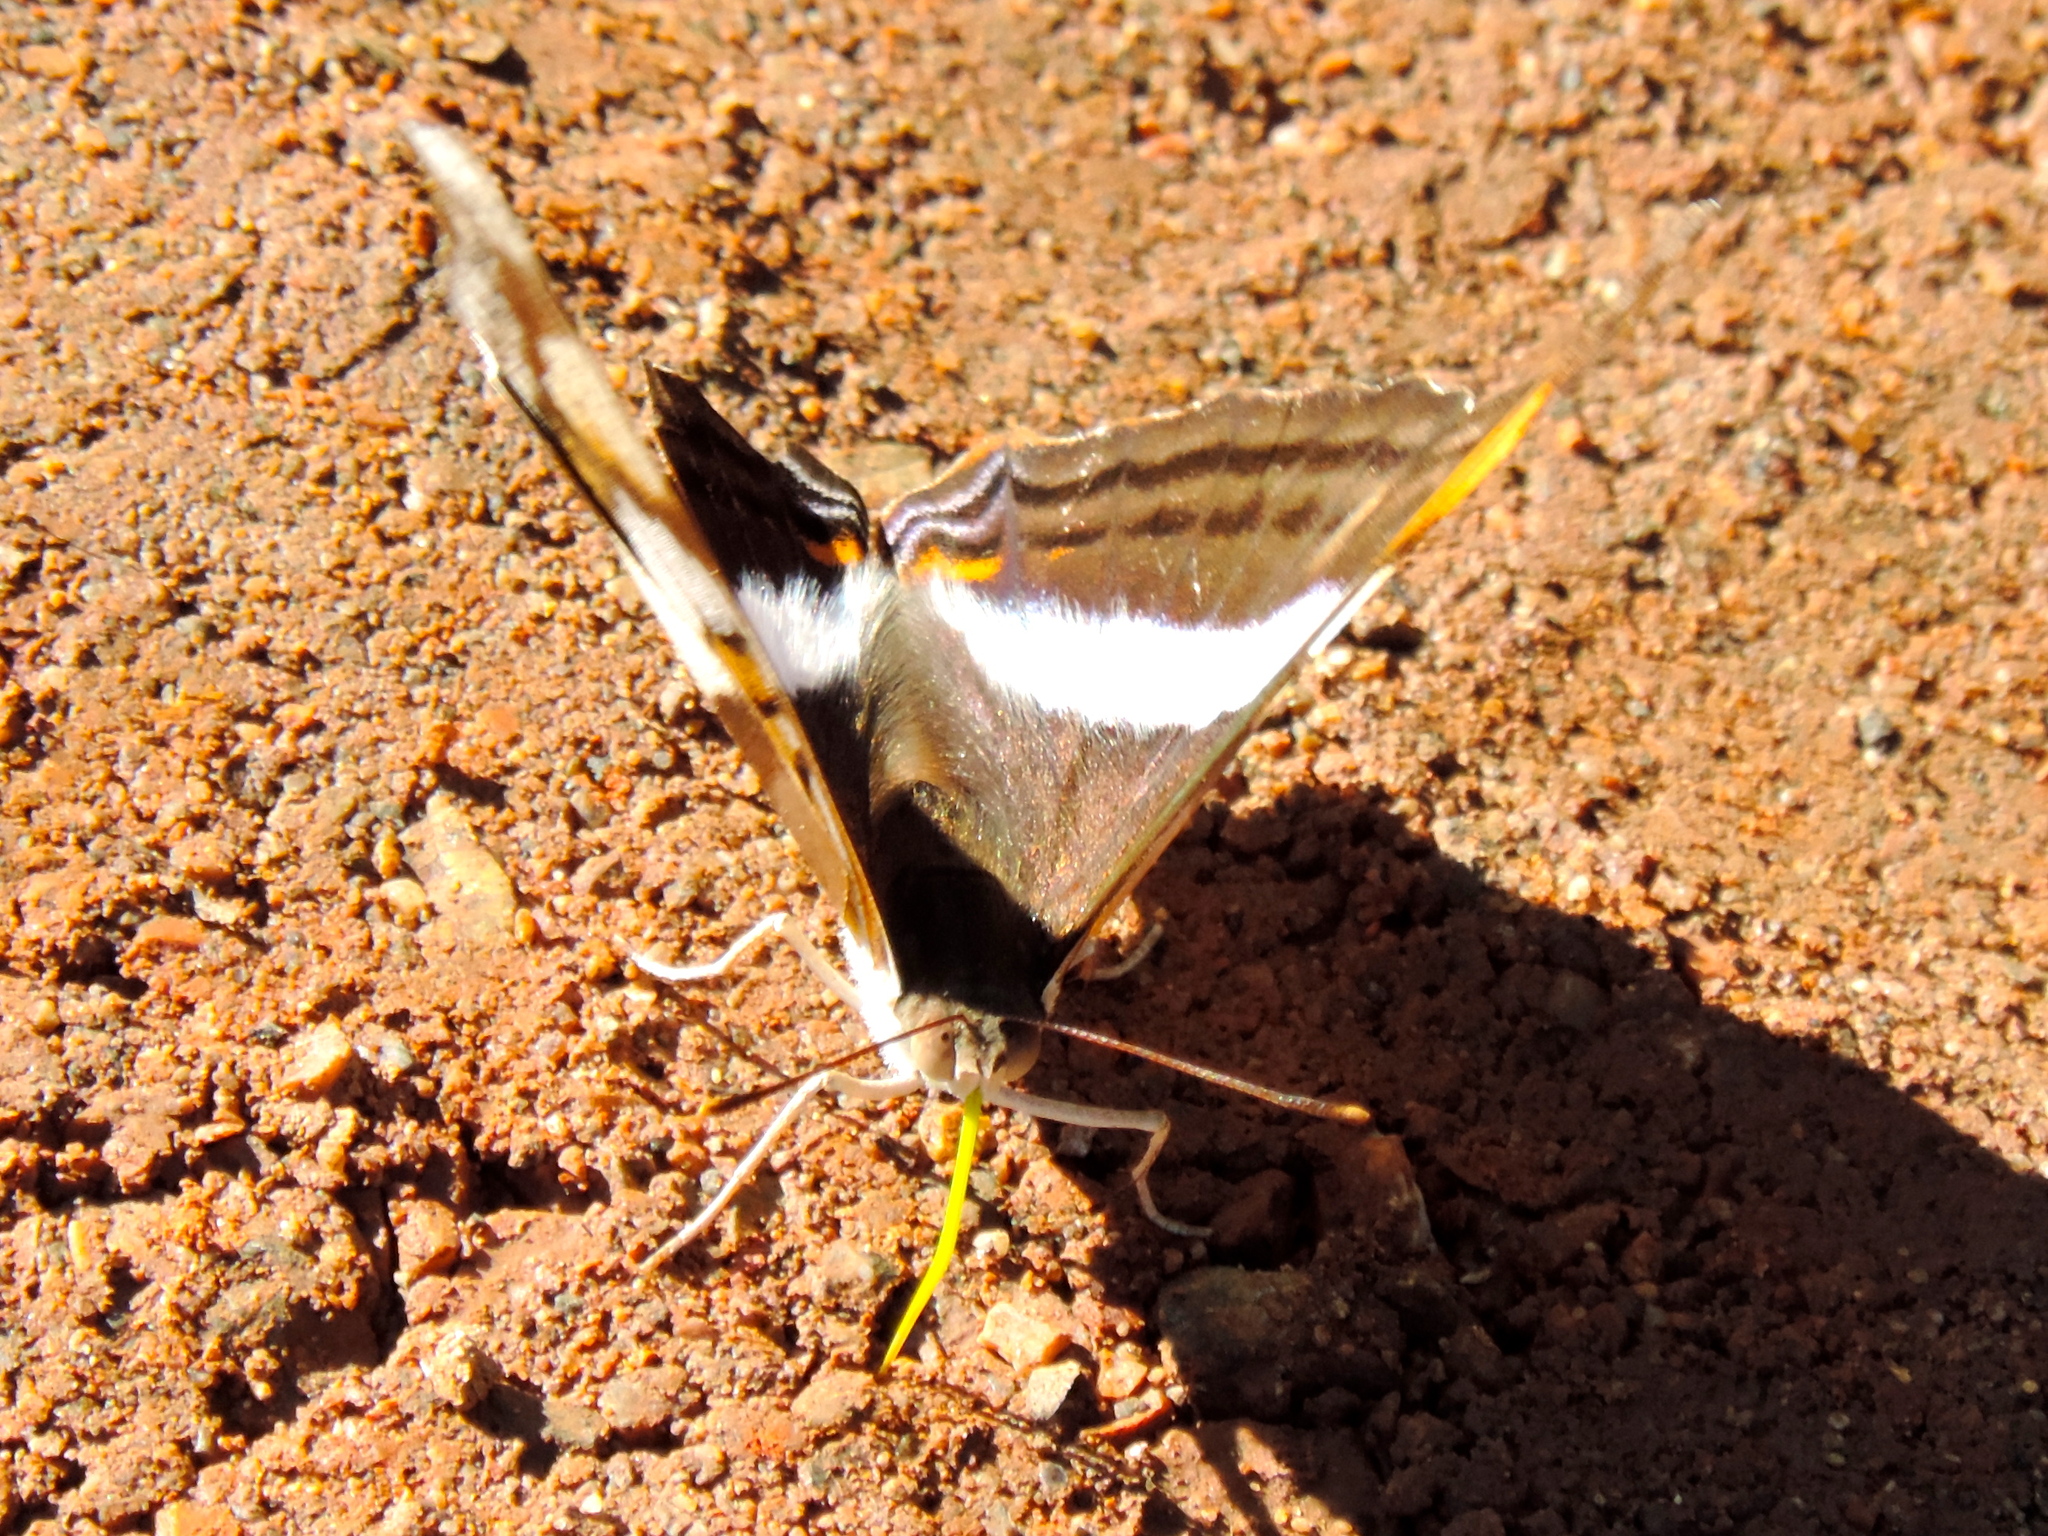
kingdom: Animalia
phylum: Arthropoda
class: Insecta
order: Lepidoptera
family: Nymphalidae
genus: Doxocopa
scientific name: Doxocopa laure
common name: Silver emperor
